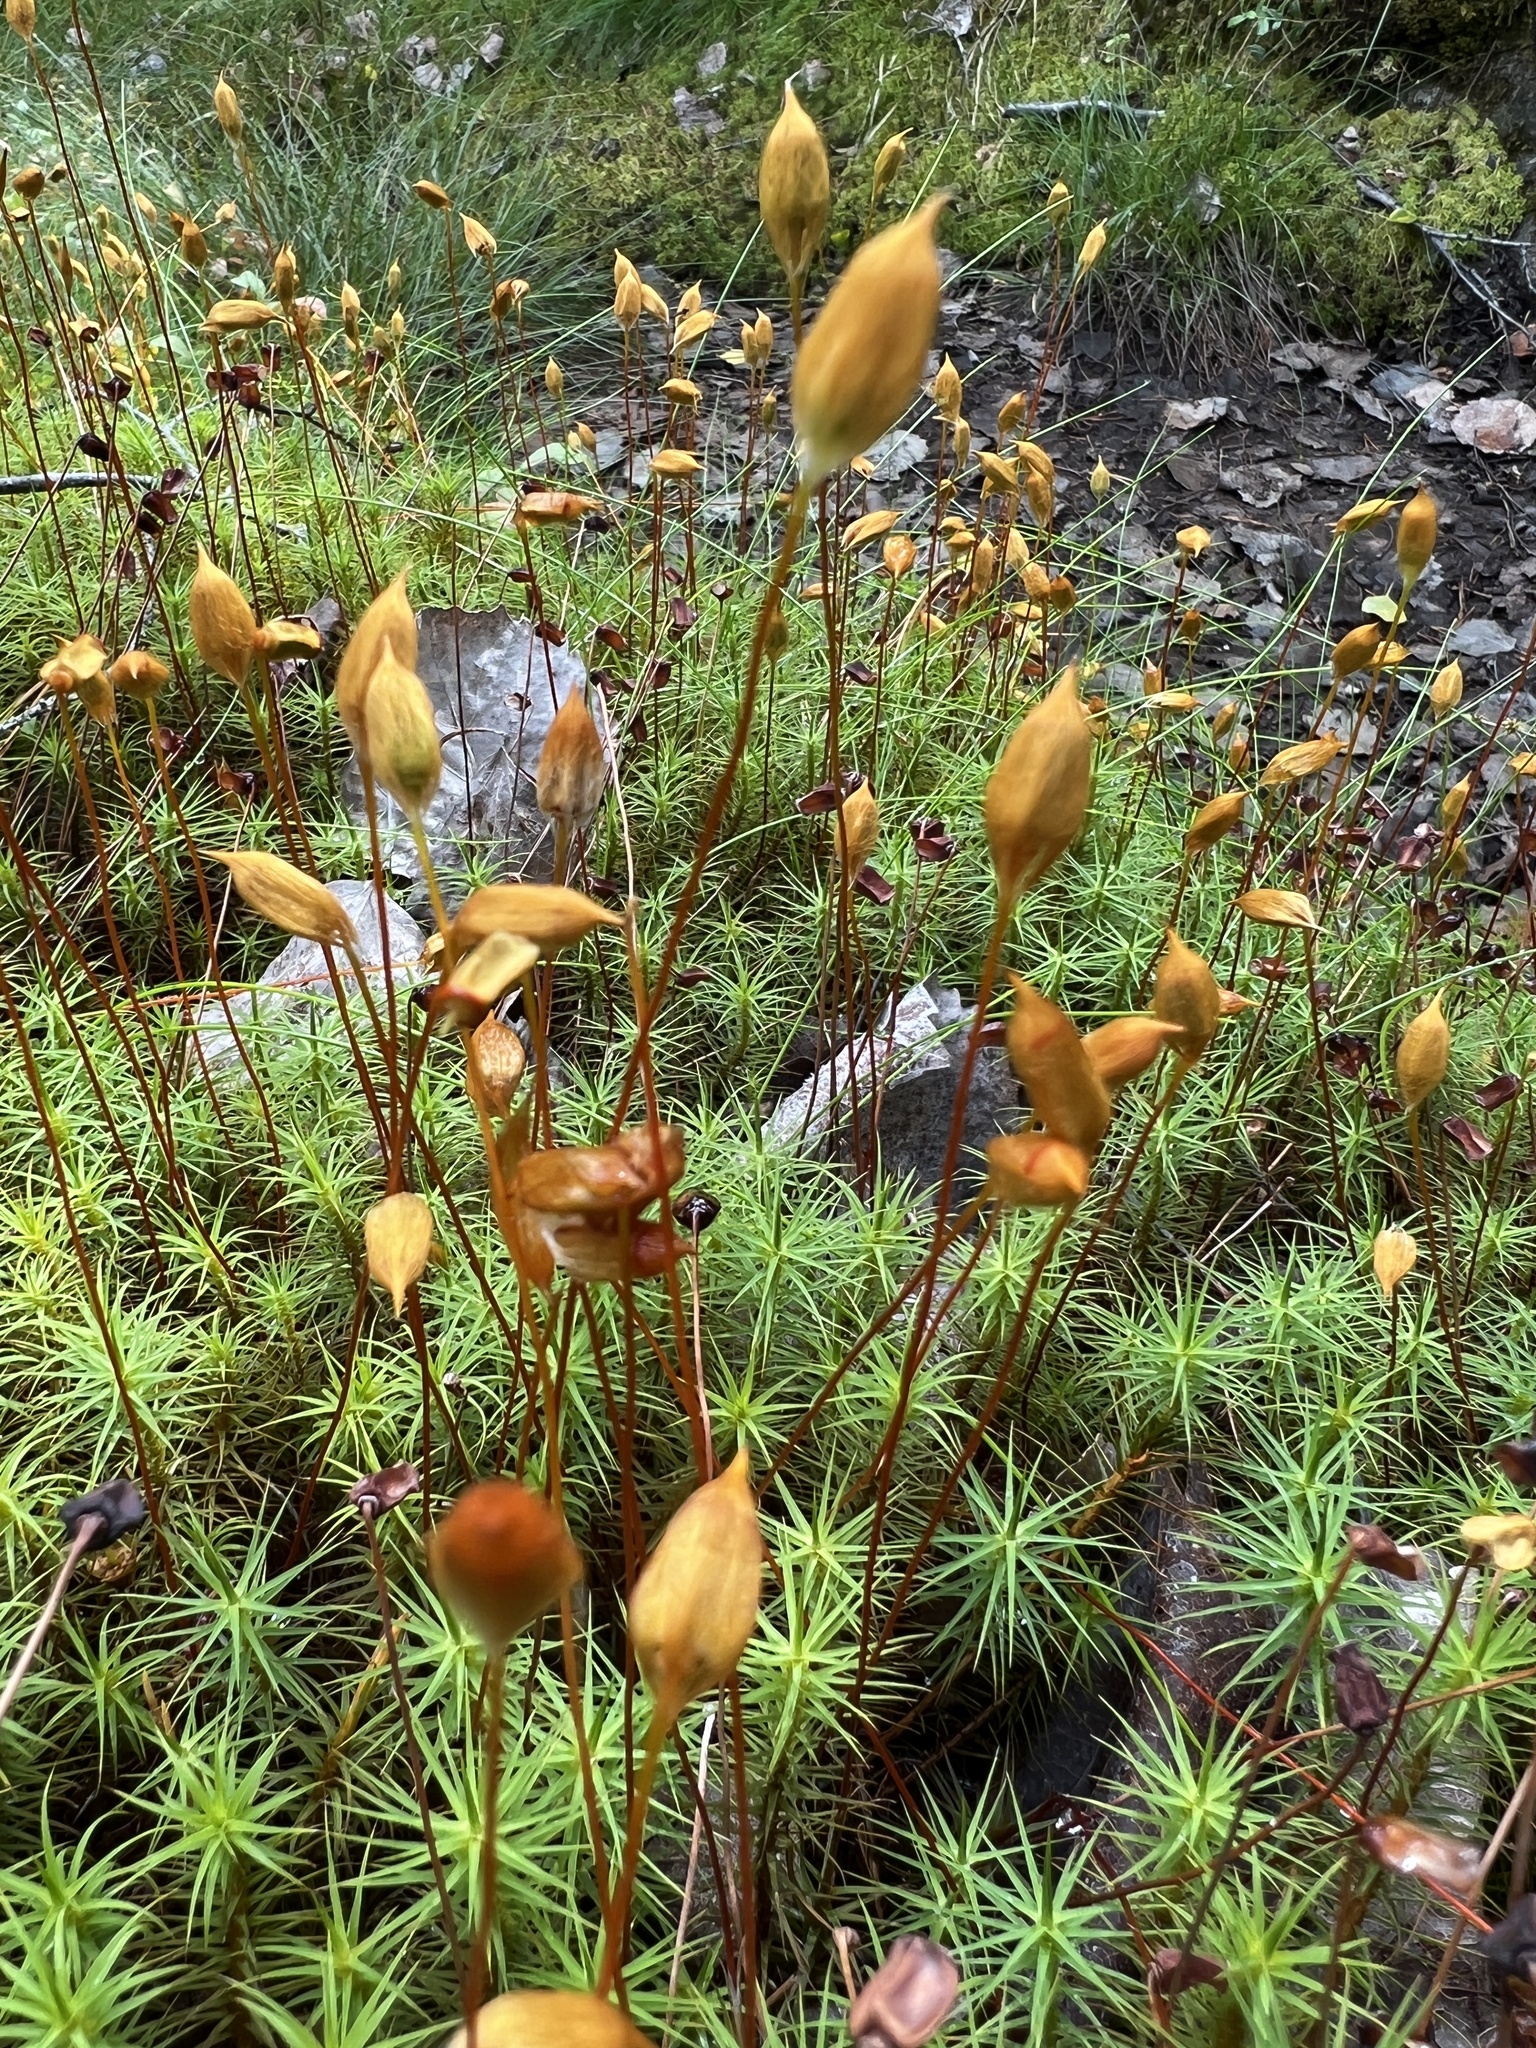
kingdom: Plantae
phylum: Bryophyta
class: Polytrichopsida
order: Polytrichales
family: Polytrichaceae
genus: Polytrichum
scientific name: Polytrichum commune
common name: Common haircap
